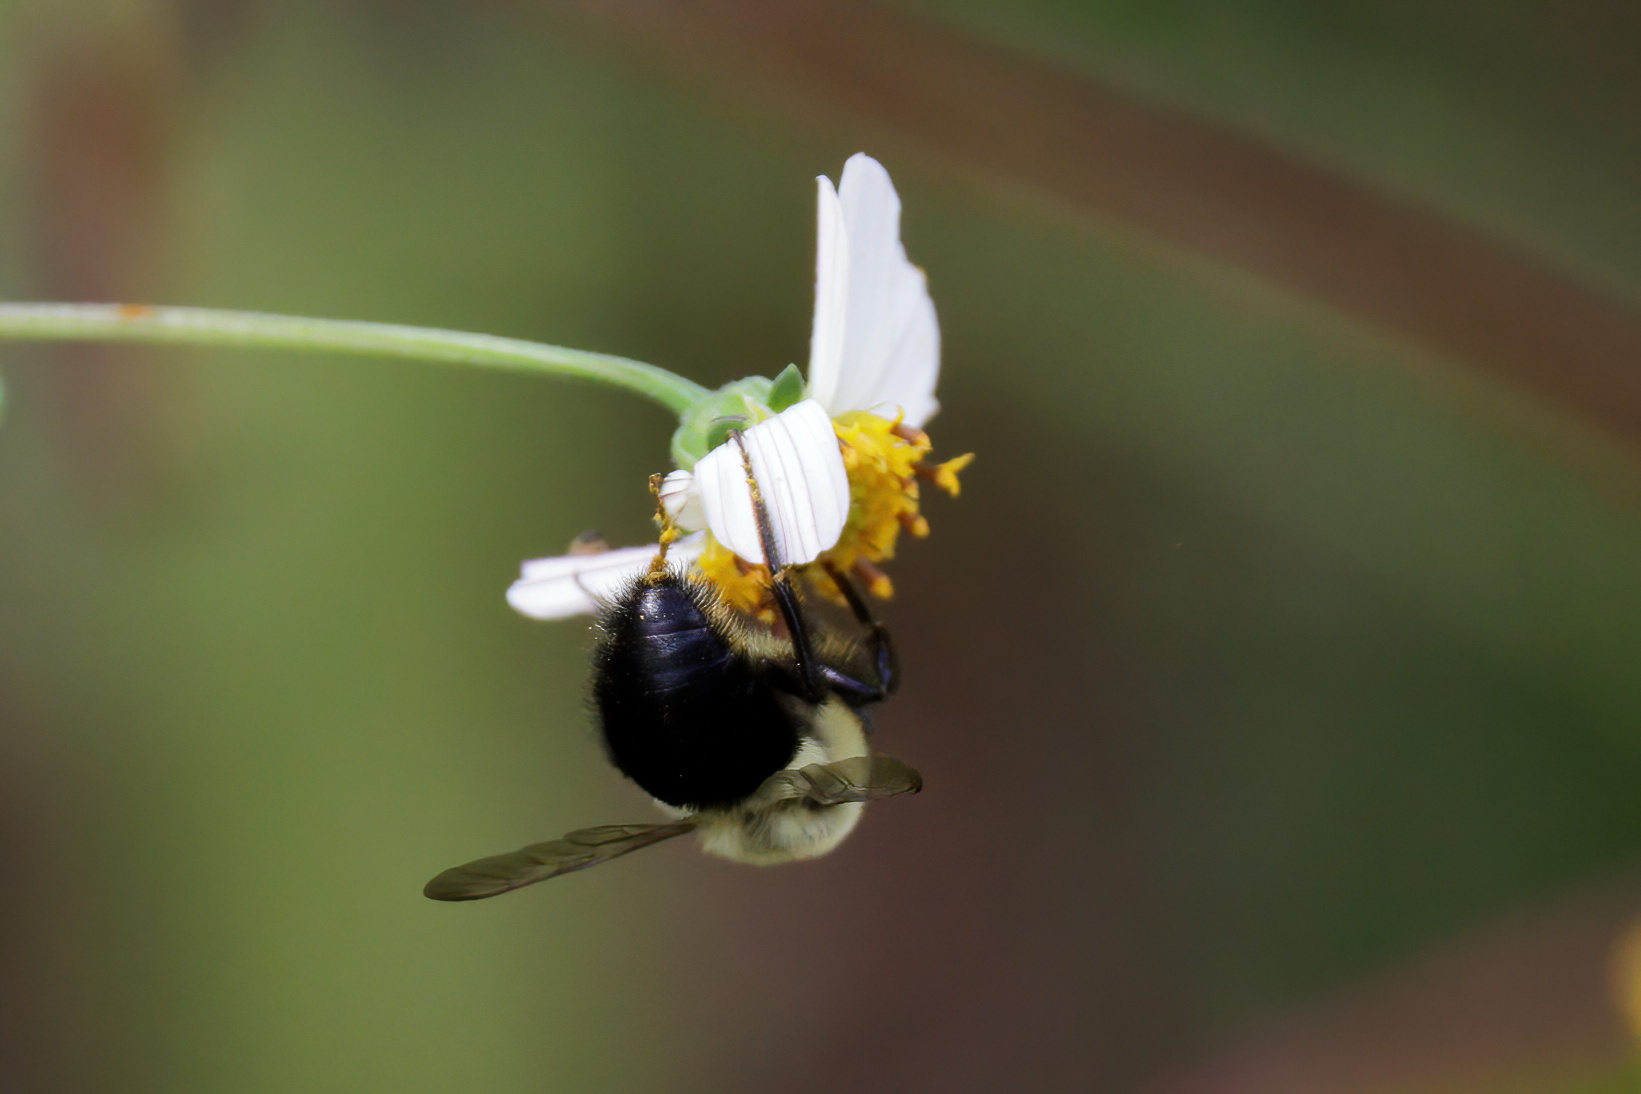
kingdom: Animalia
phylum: Arthropoda
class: Insecta
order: Hymenoptera
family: Apidae
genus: Bombus
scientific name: Bombus impatiens
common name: Common eastern bumble bee
